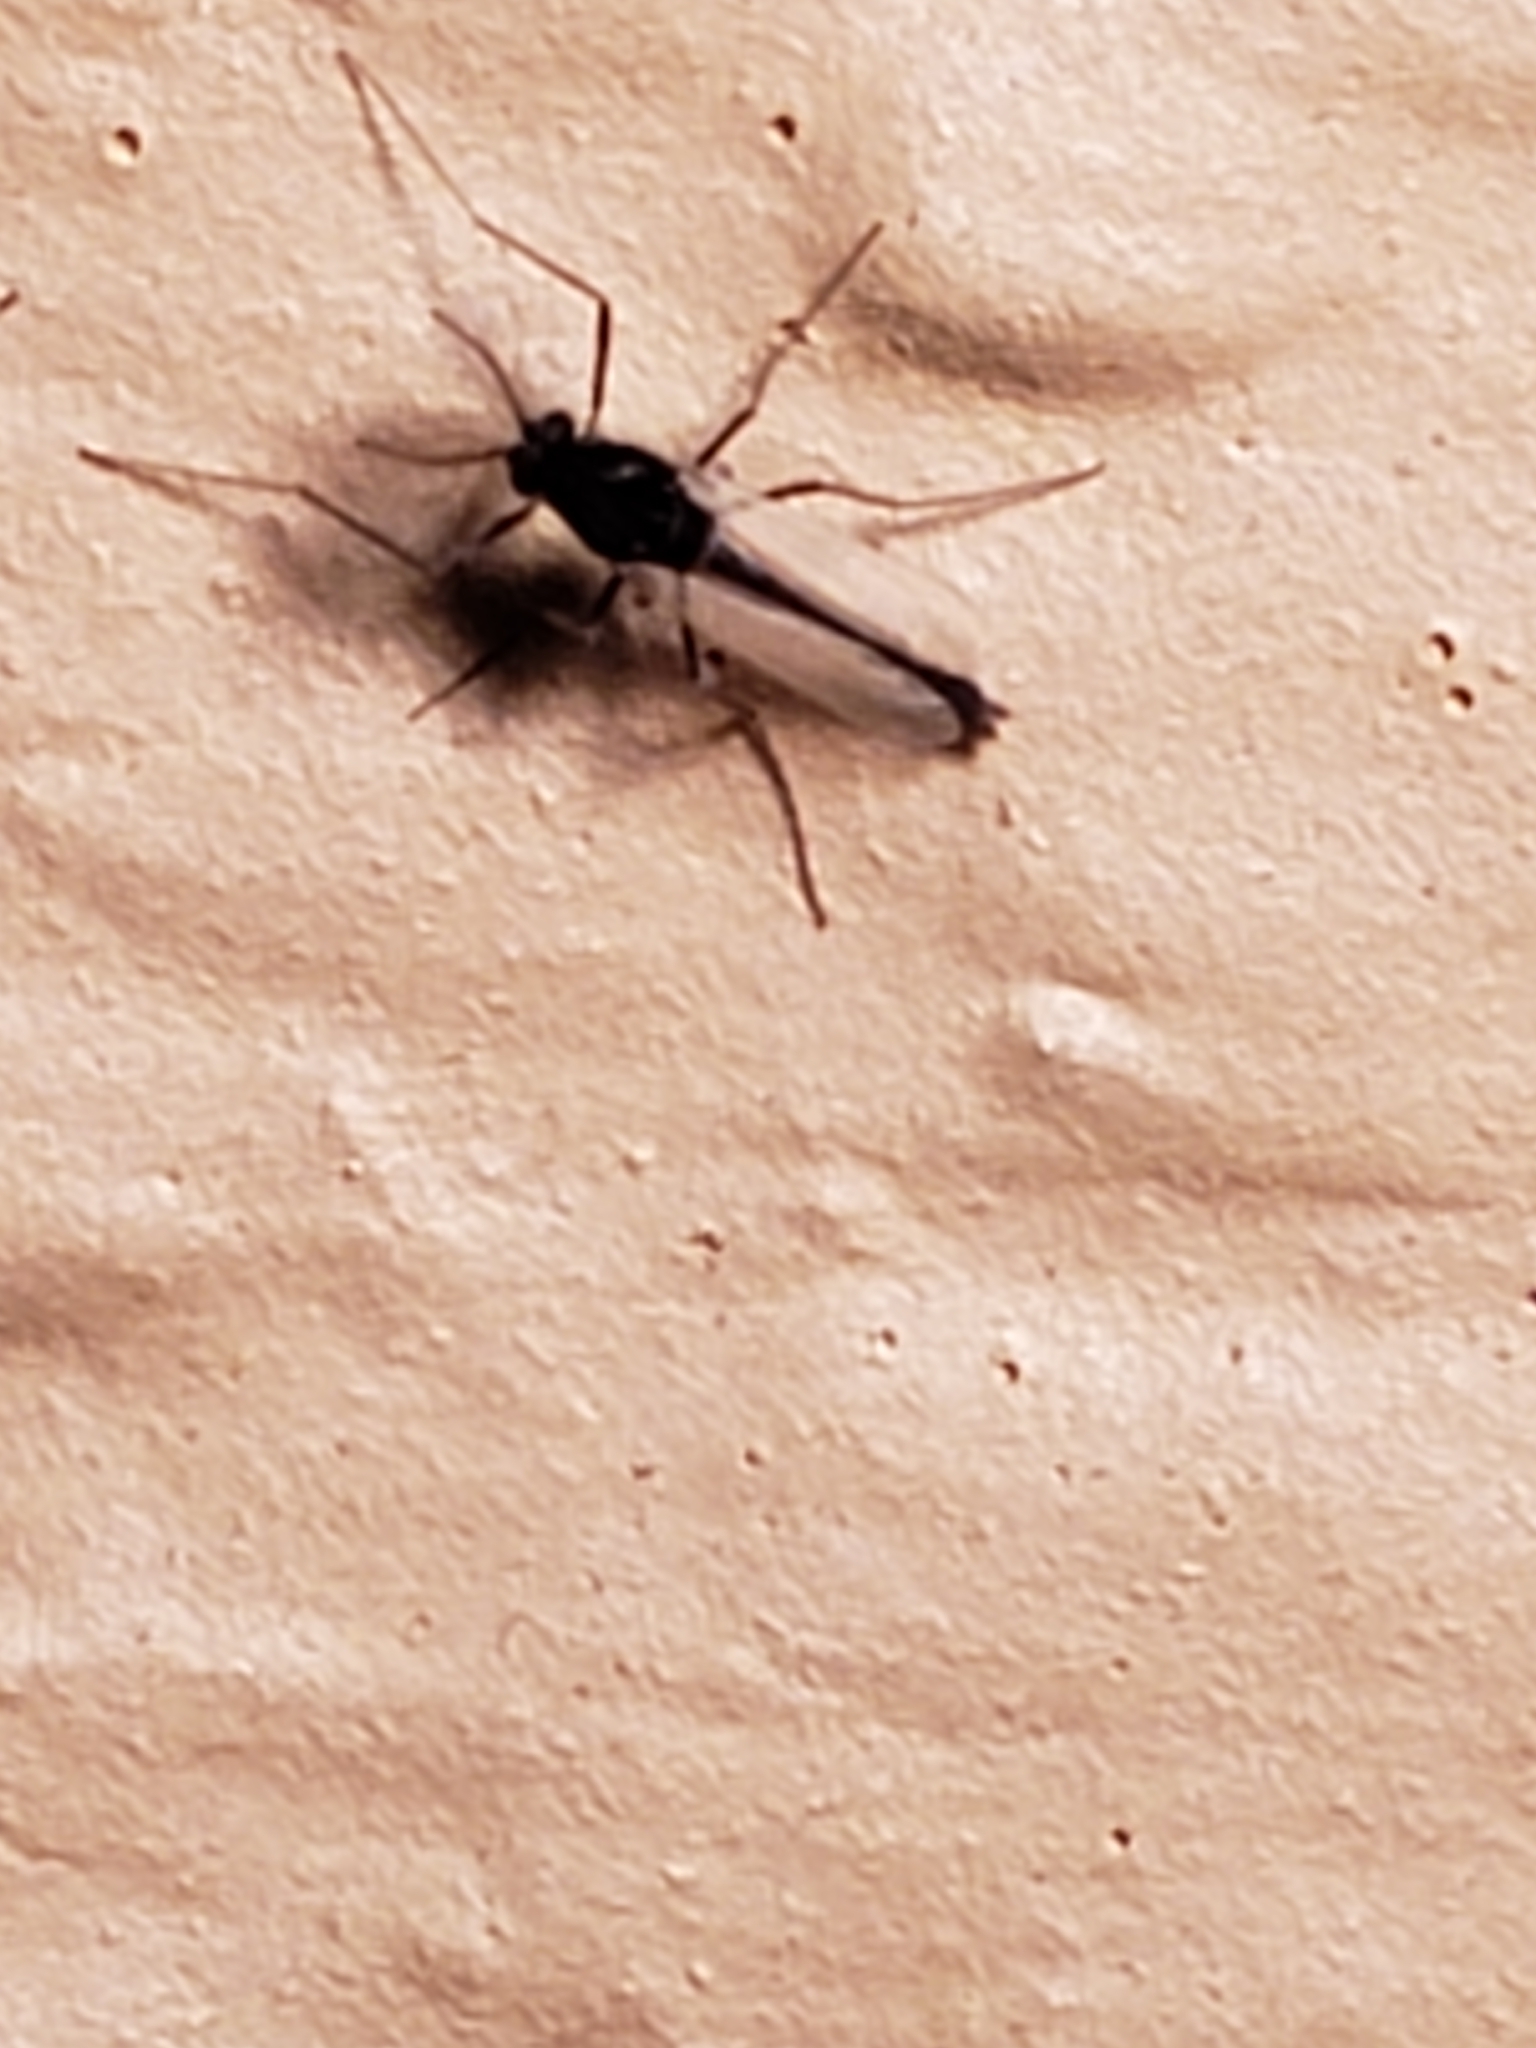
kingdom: Animalia
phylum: Arthropoda
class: Insecta
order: Diptera
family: Chironomidae
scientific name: Chironomidae
